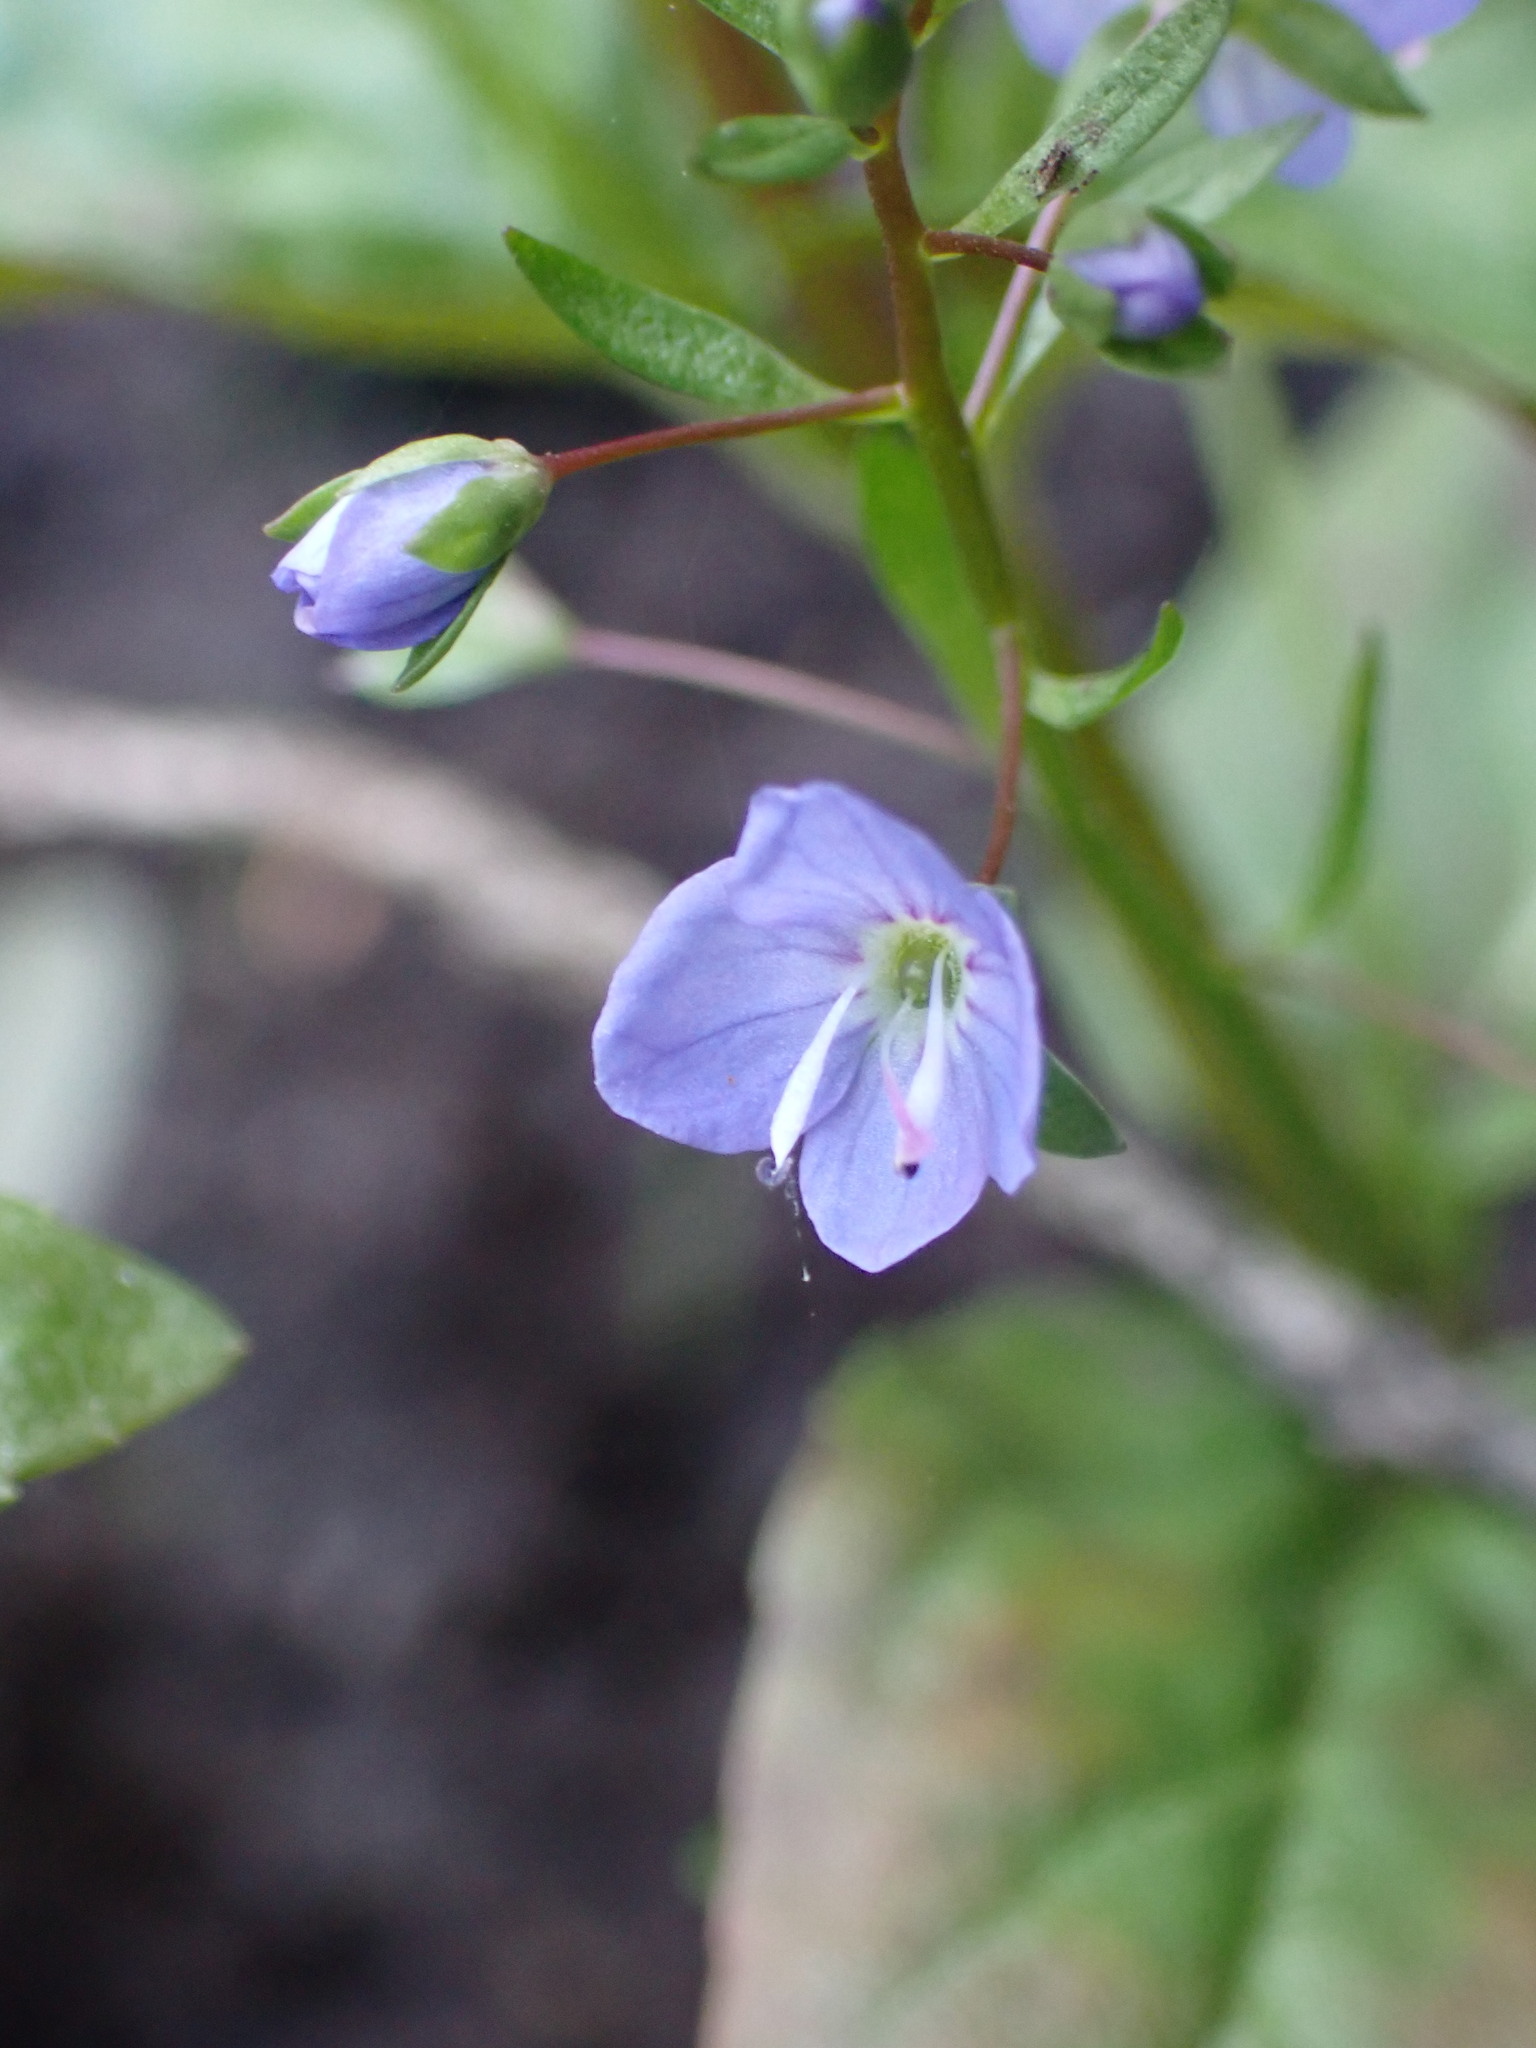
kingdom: Plantae
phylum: Tracheophyta
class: Magnoliopsida
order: Lamiales
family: Plantaginaceae
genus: Veronica
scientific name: Veronica americana
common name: American brooklime
